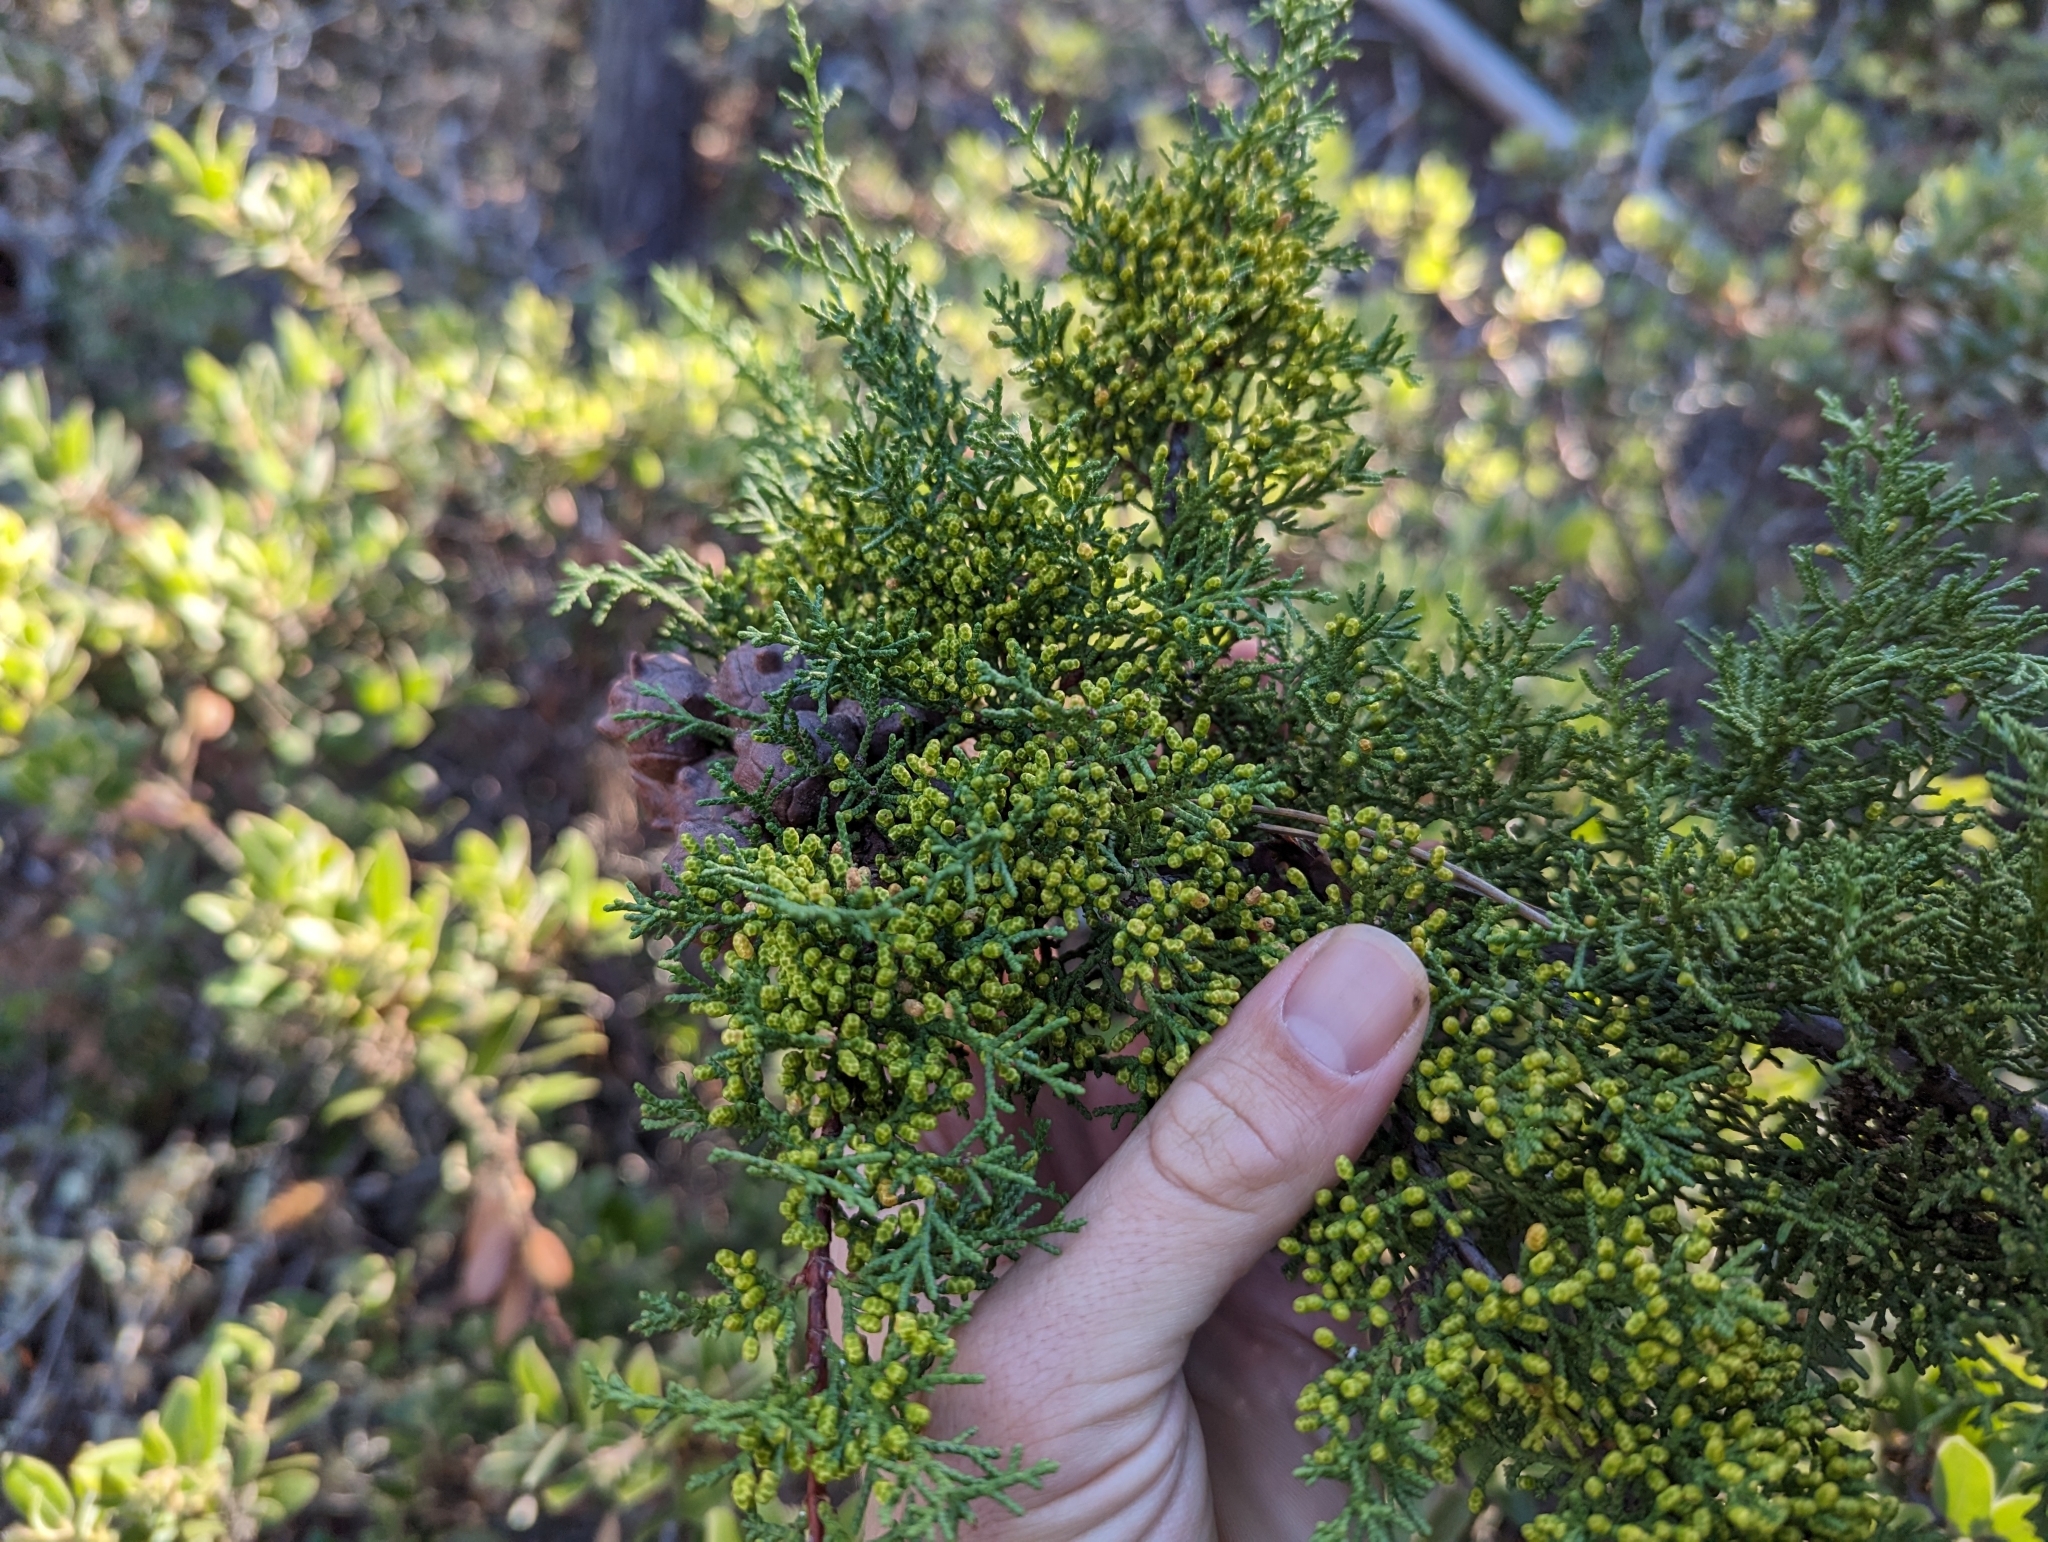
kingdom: Plantae
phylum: Tracheophyta
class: Pinopsida
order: Pinales
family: Cupressaceae
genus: Cupressus
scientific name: Cupressus goveniana
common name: Gowen cypress
